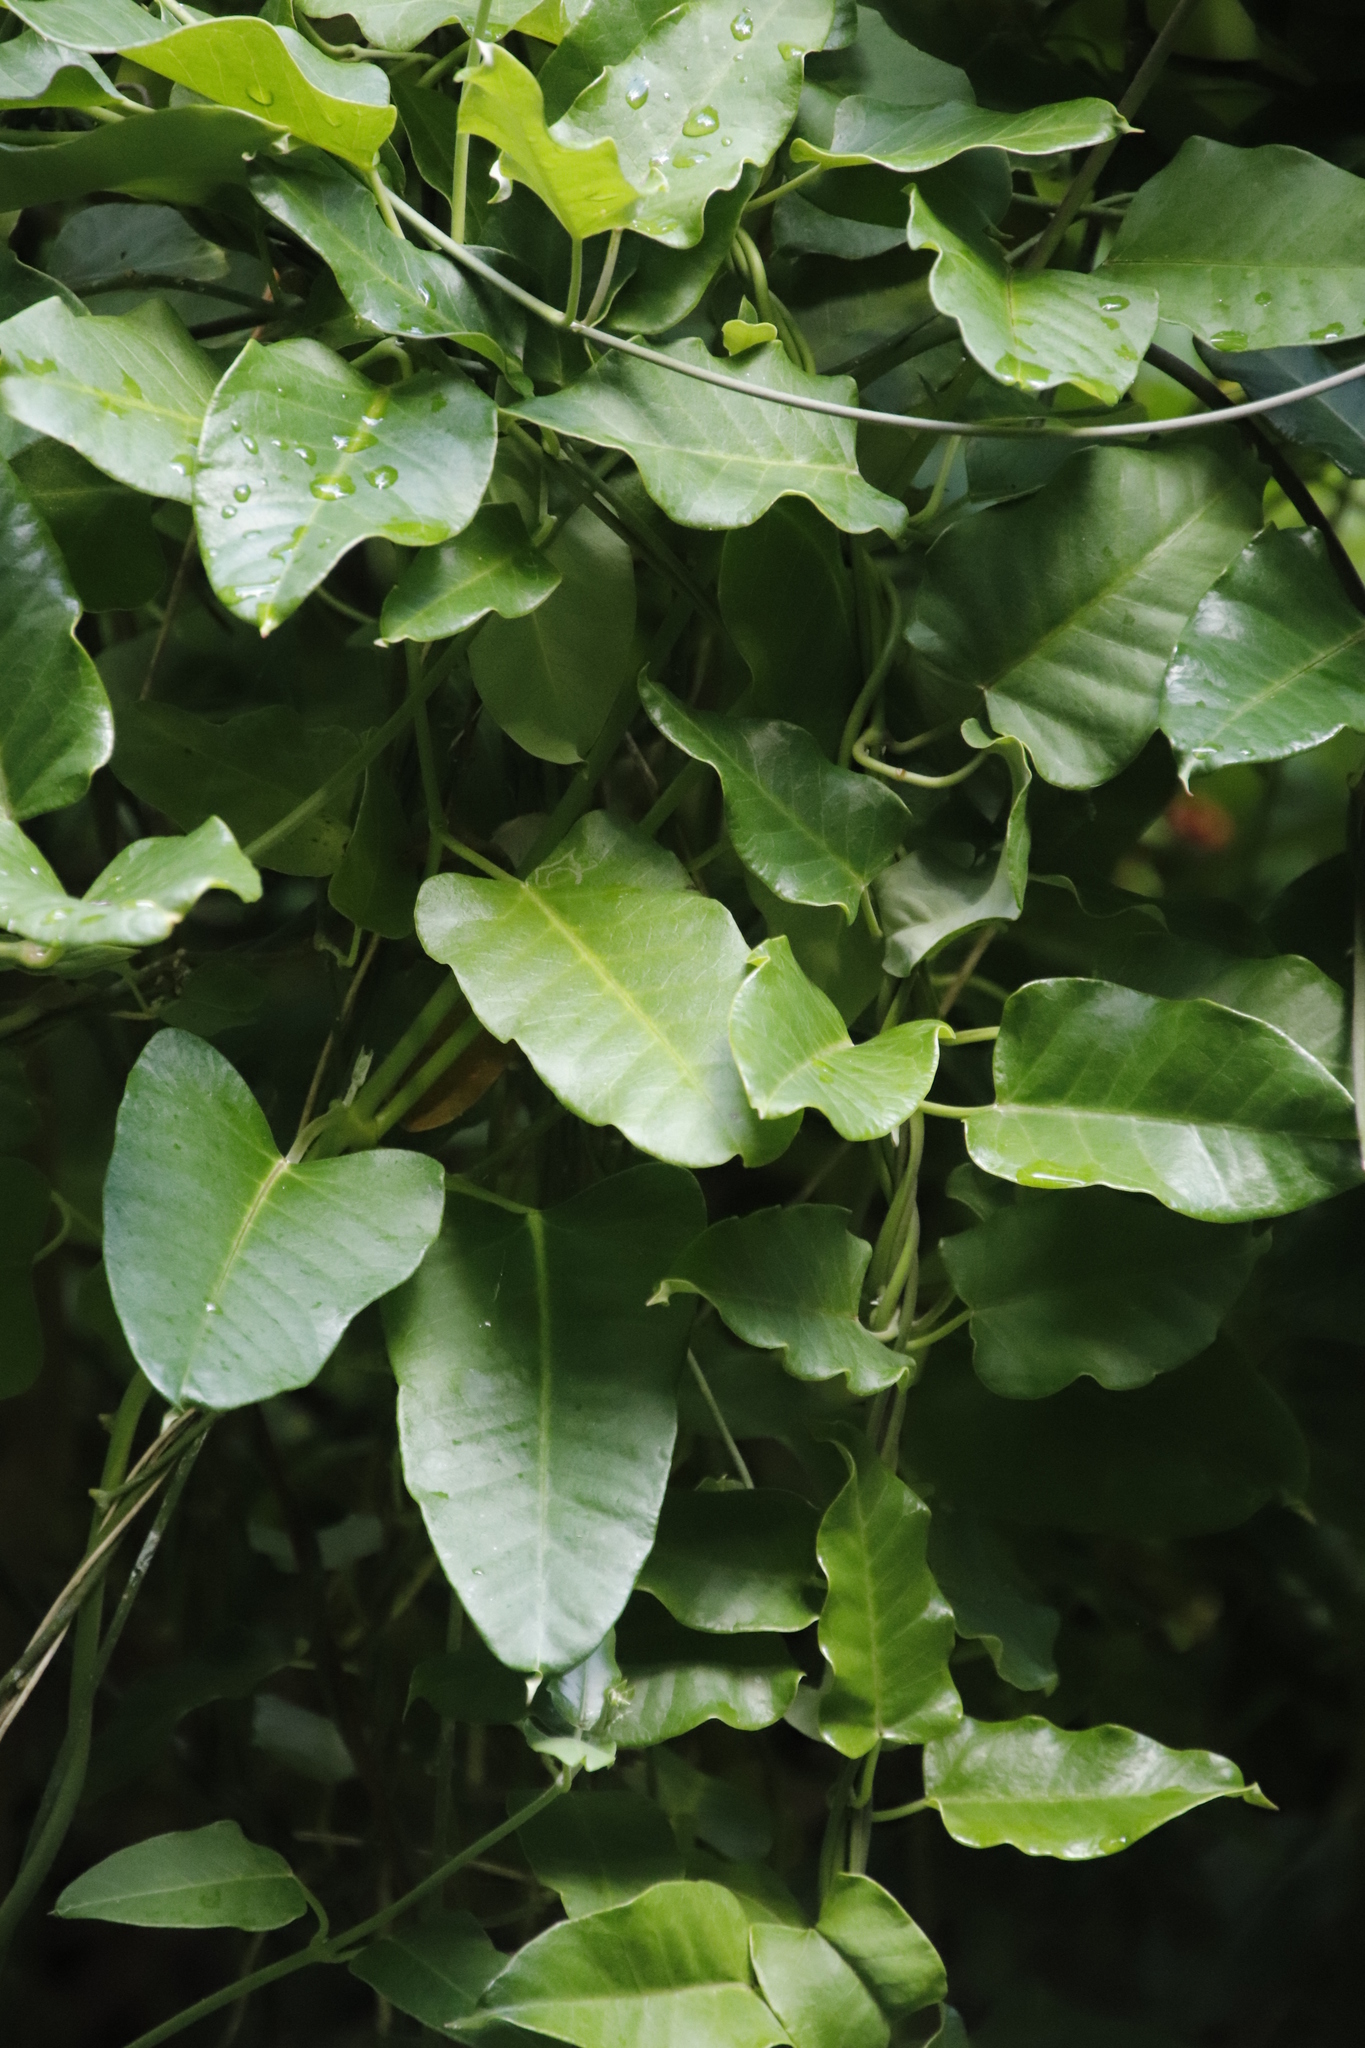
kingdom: Plantae
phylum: Tracheophyta
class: Magnoliopsida
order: Gentianales
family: Apocynaceae
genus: Araujia
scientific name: Araujia sericifera
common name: White bladderflower
